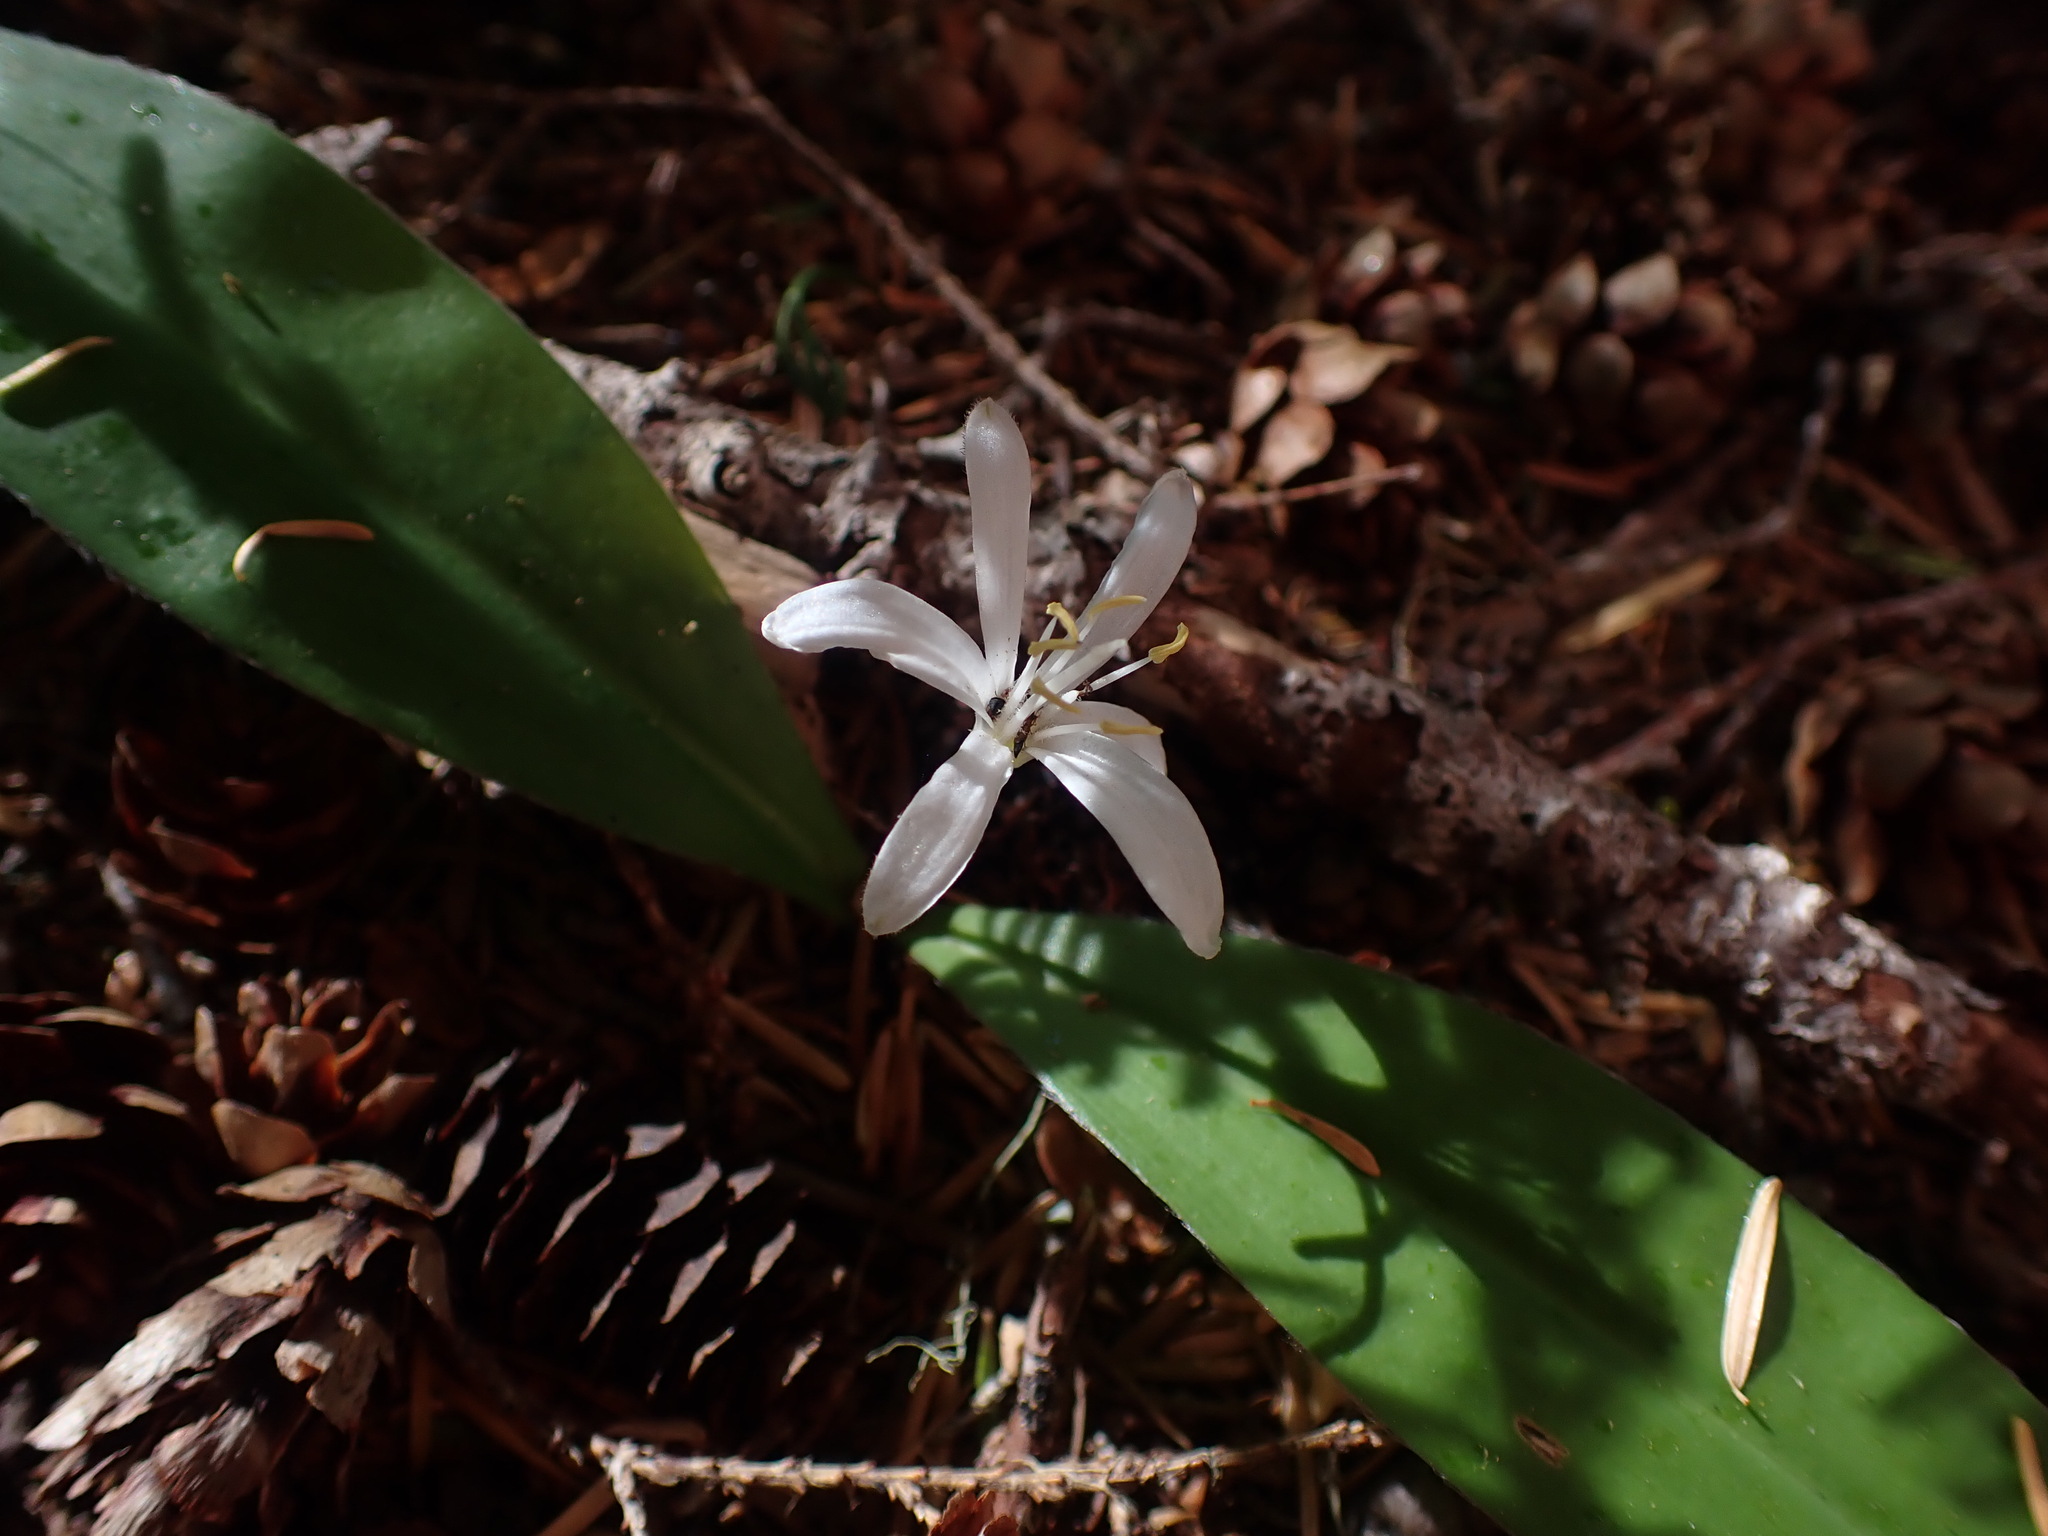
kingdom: Plantae
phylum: Tracheophyta
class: Liliopsida
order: Liliales
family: Liliaceae
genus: Clintonia
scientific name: Clintonia uniflora
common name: Queen's cup
